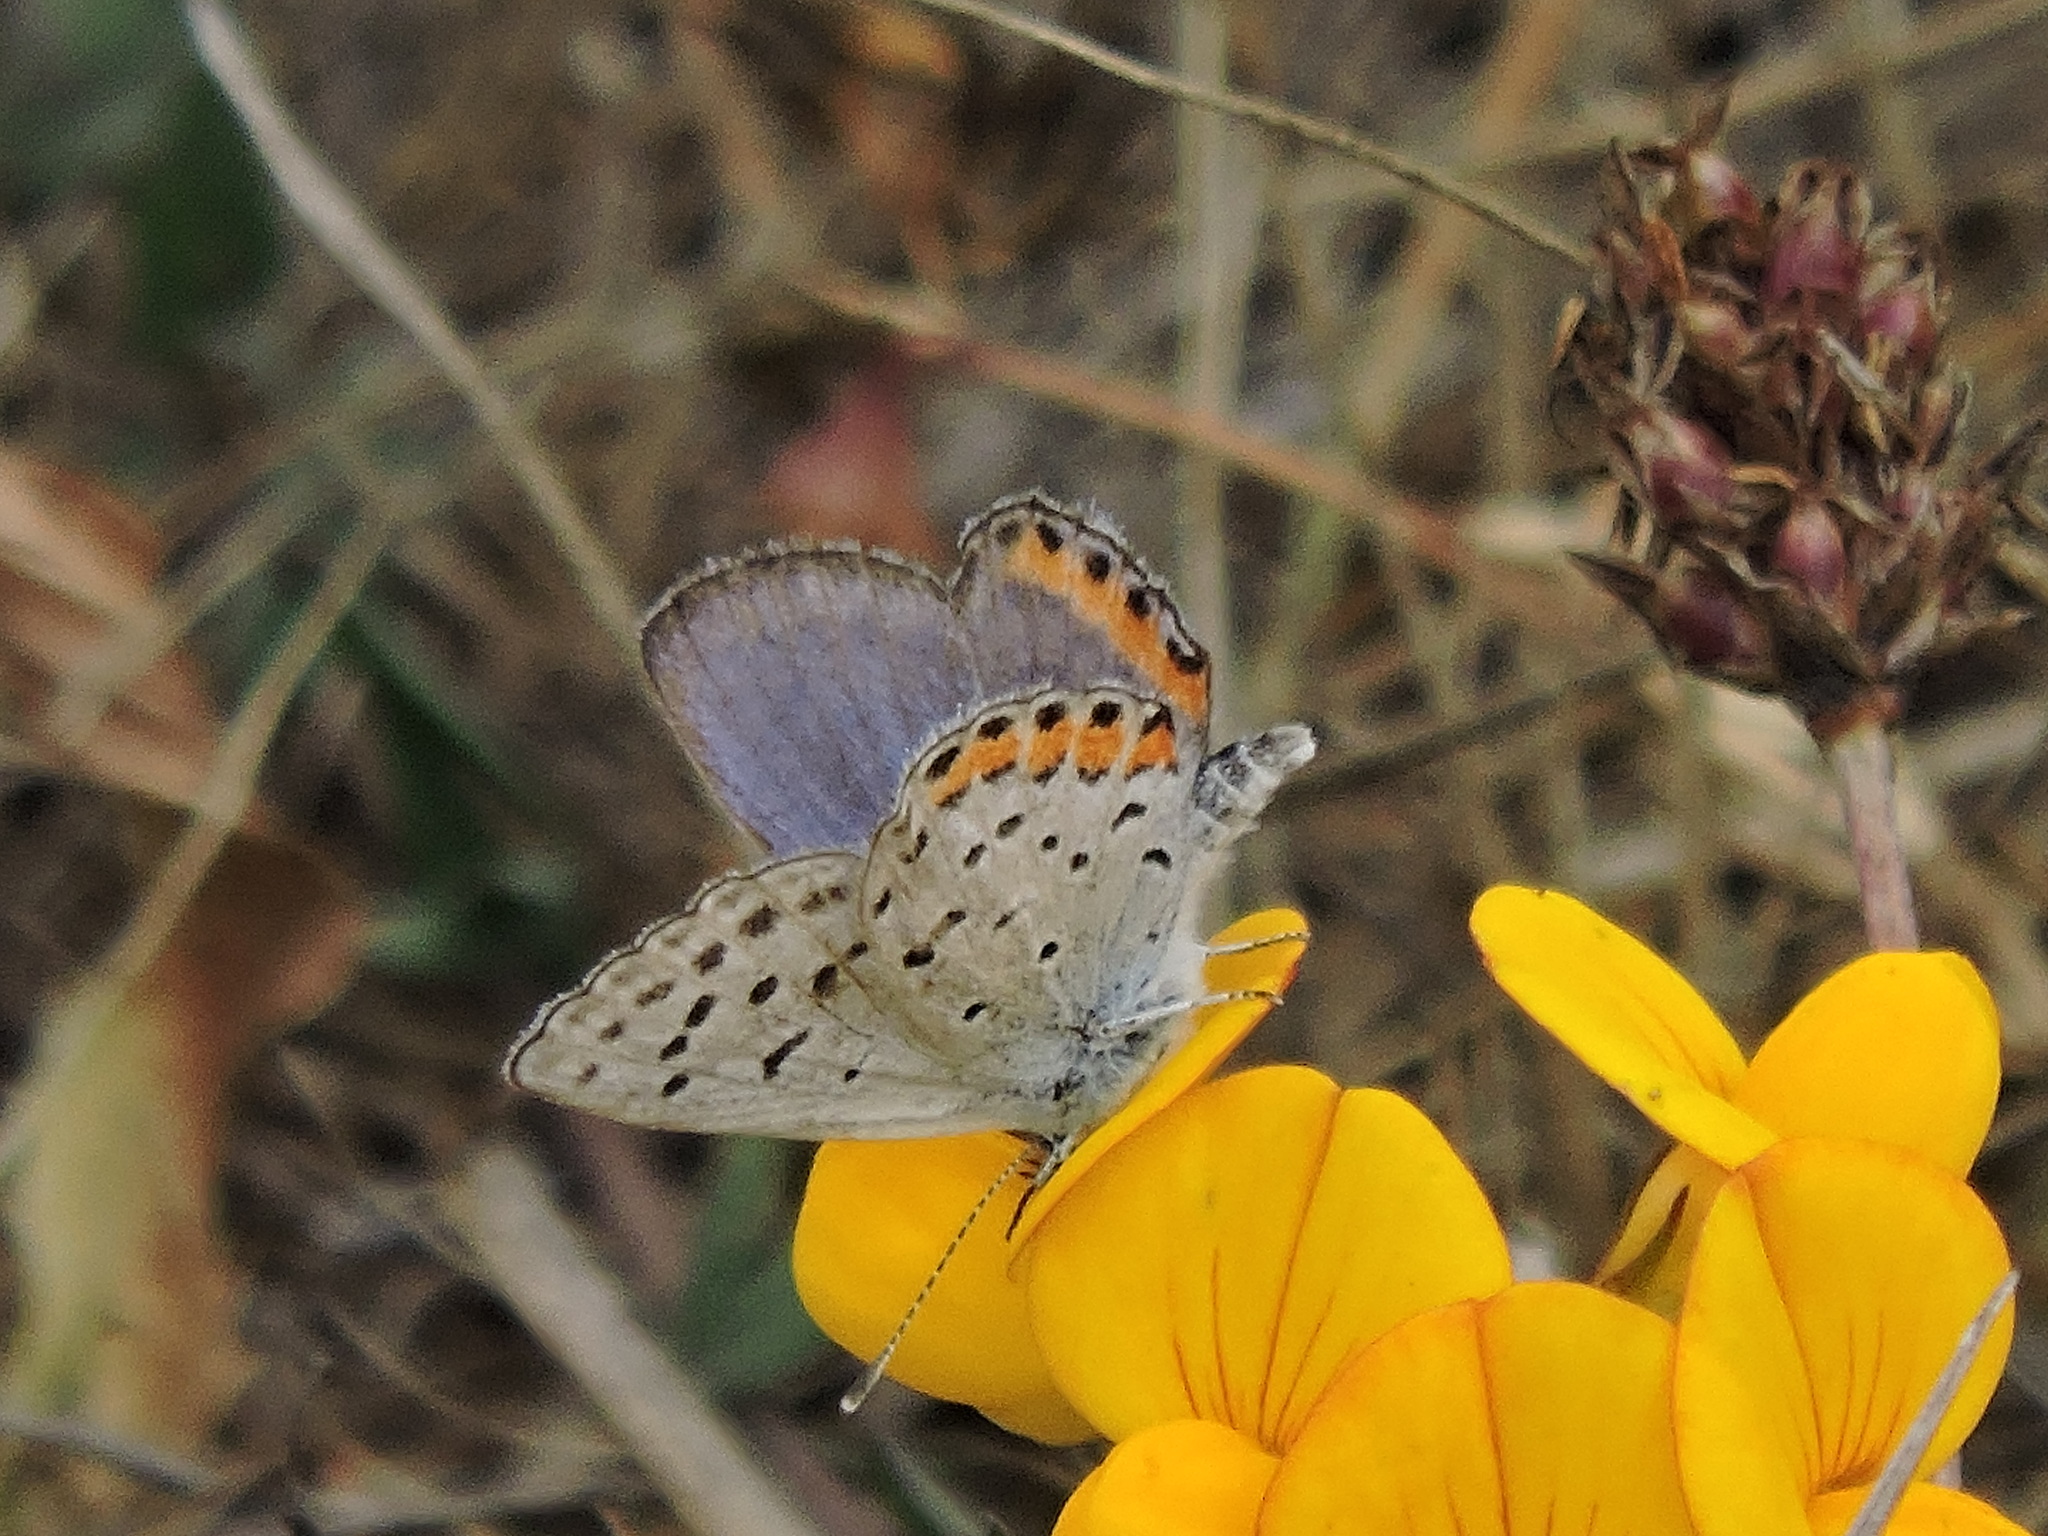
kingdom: Animalia
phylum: Arthropoda
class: Insecta
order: Lepidoptera
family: Lycaenidae
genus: Icaricia
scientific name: Icaricia acmon
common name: Acmon blue
